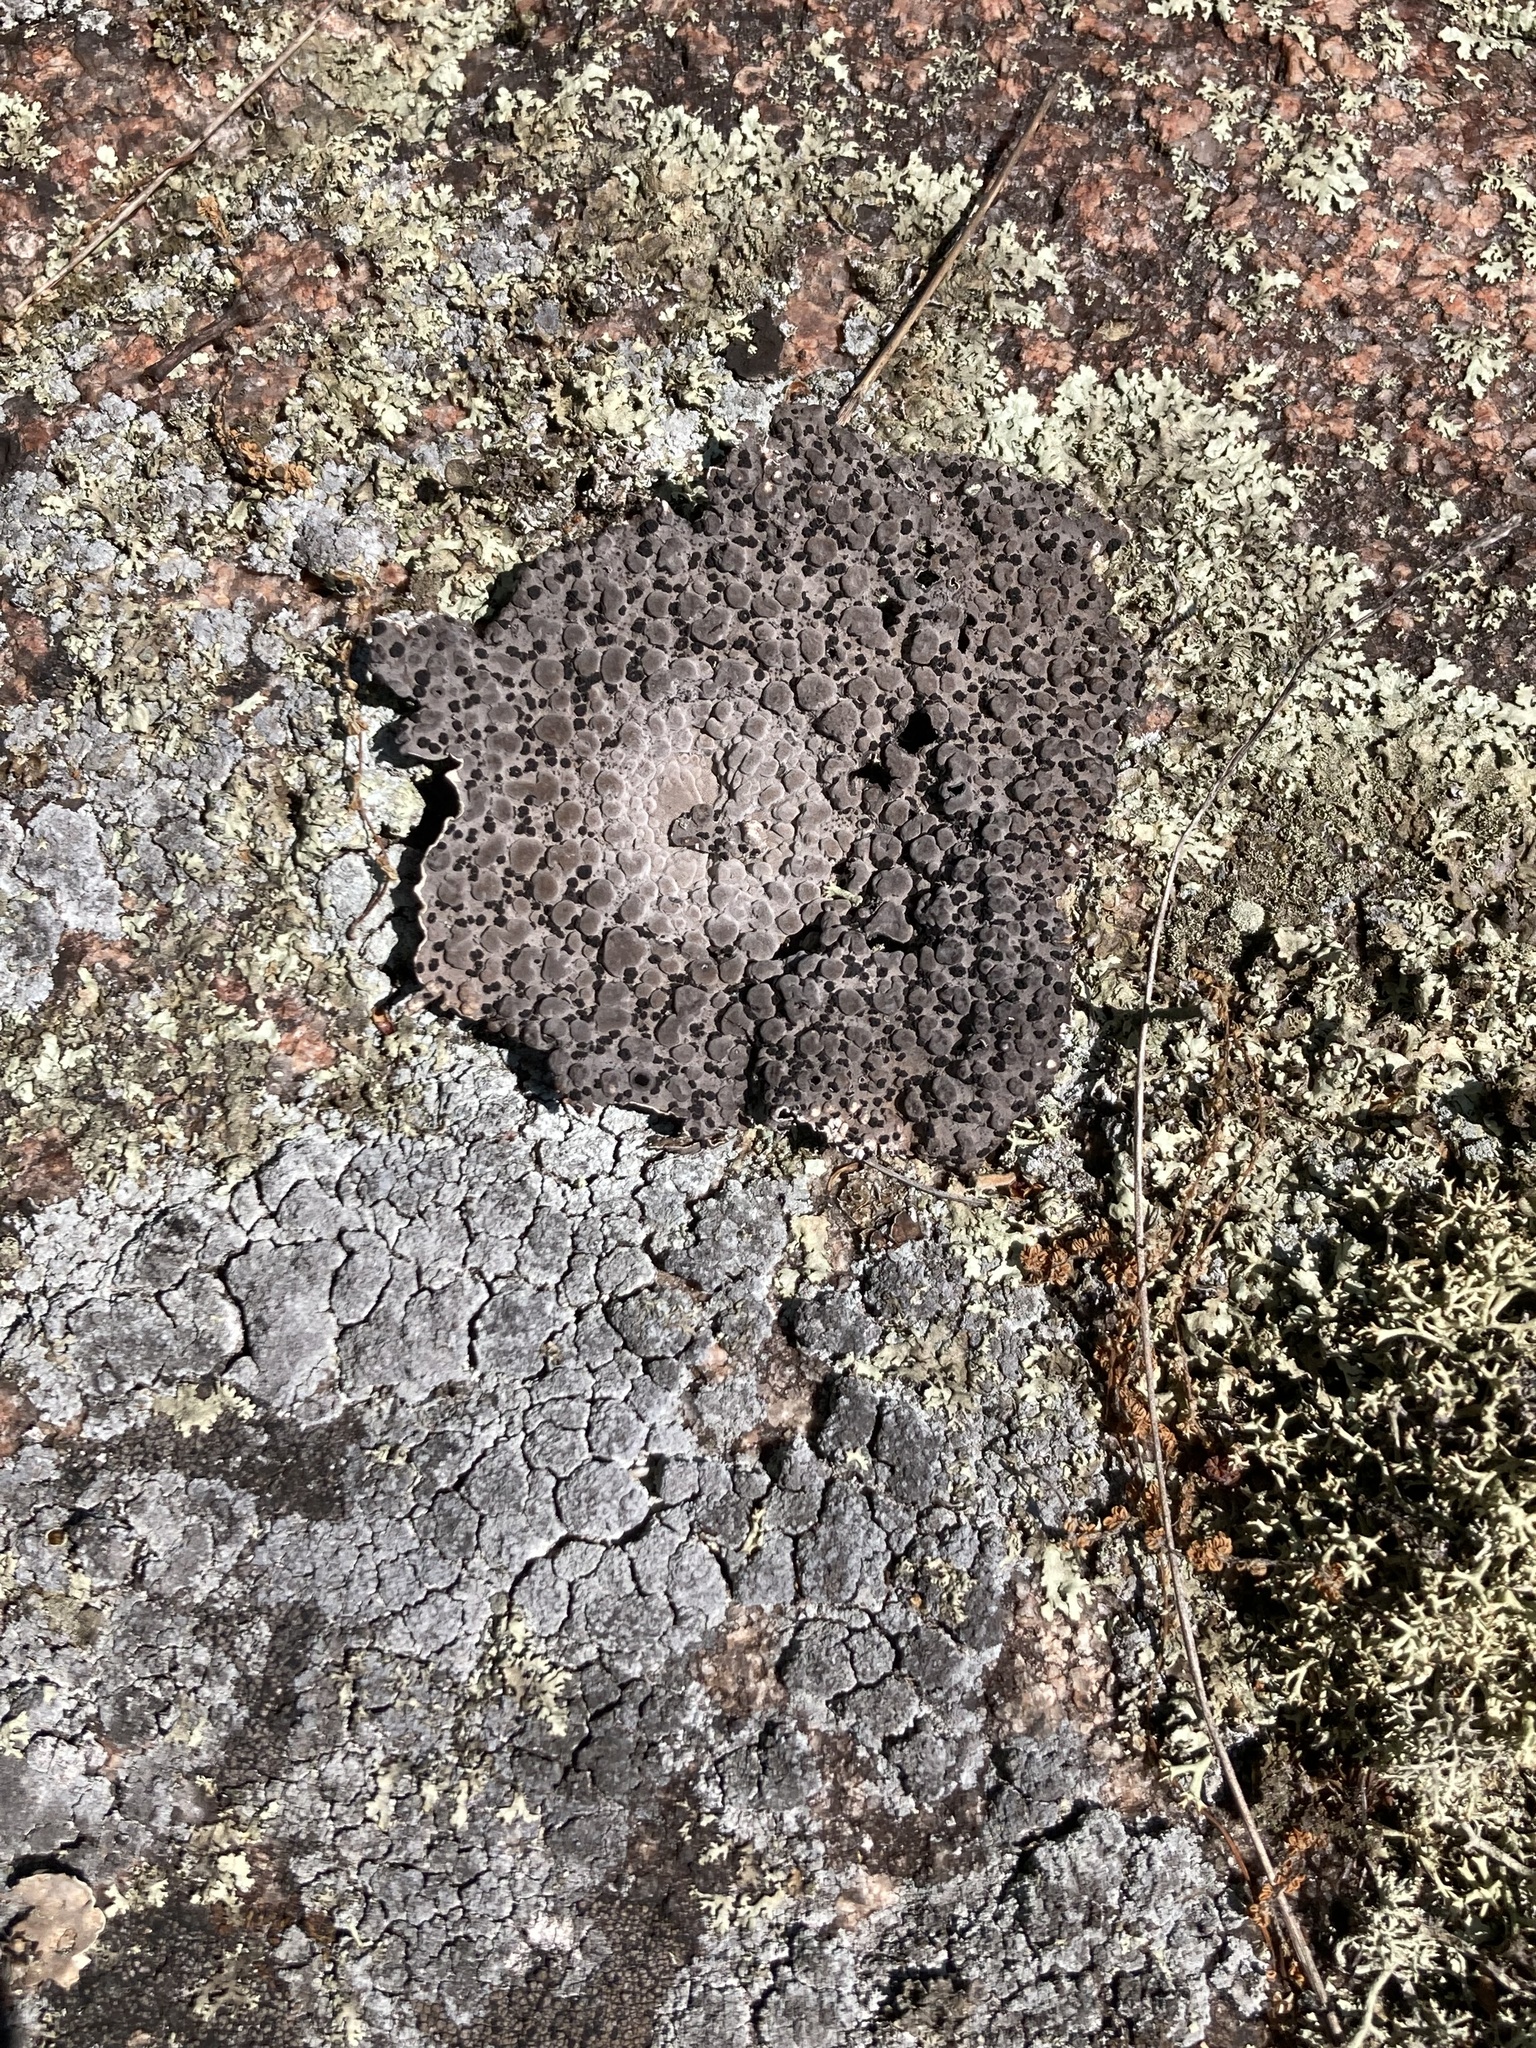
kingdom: Fungi
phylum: Ascomycota
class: Lecanoromycetes
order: Umbilicariales
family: Umbilicariaceae
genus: Lasallia
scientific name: Lasallia papulosa
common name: Common toadskin lichen
